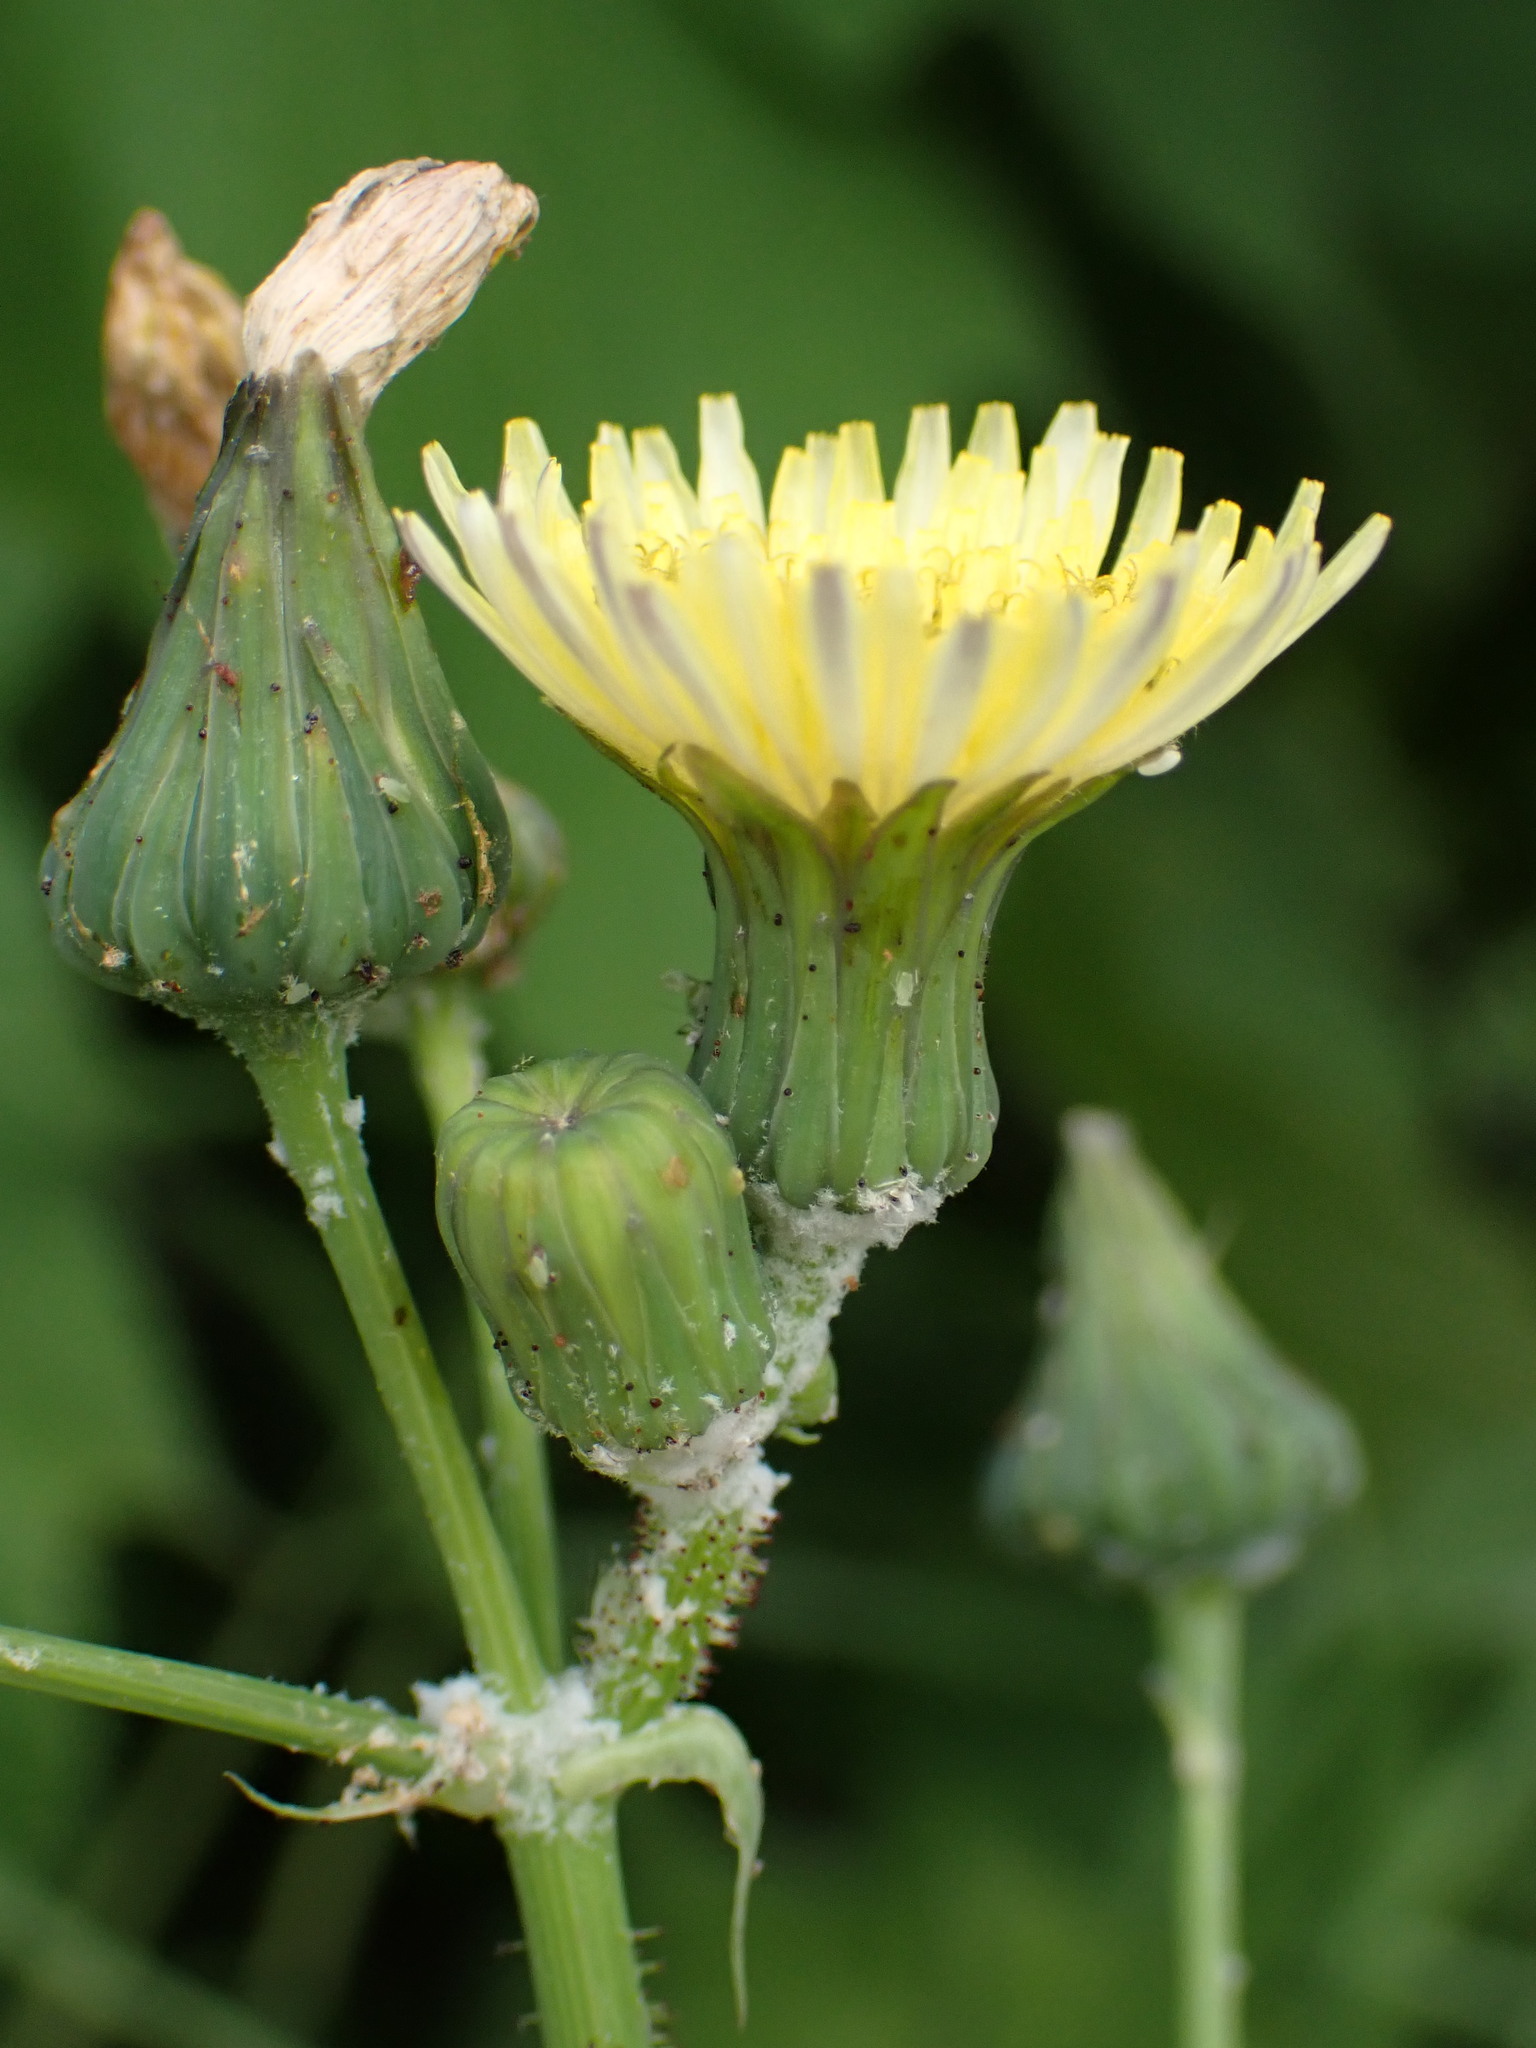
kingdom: Plantae
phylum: Tracheophyta
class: Magnoliopsida
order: Asterales
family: Asteraceae
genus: Sonchus
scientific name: Sonchus oleraceus
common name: Common sowthistle
